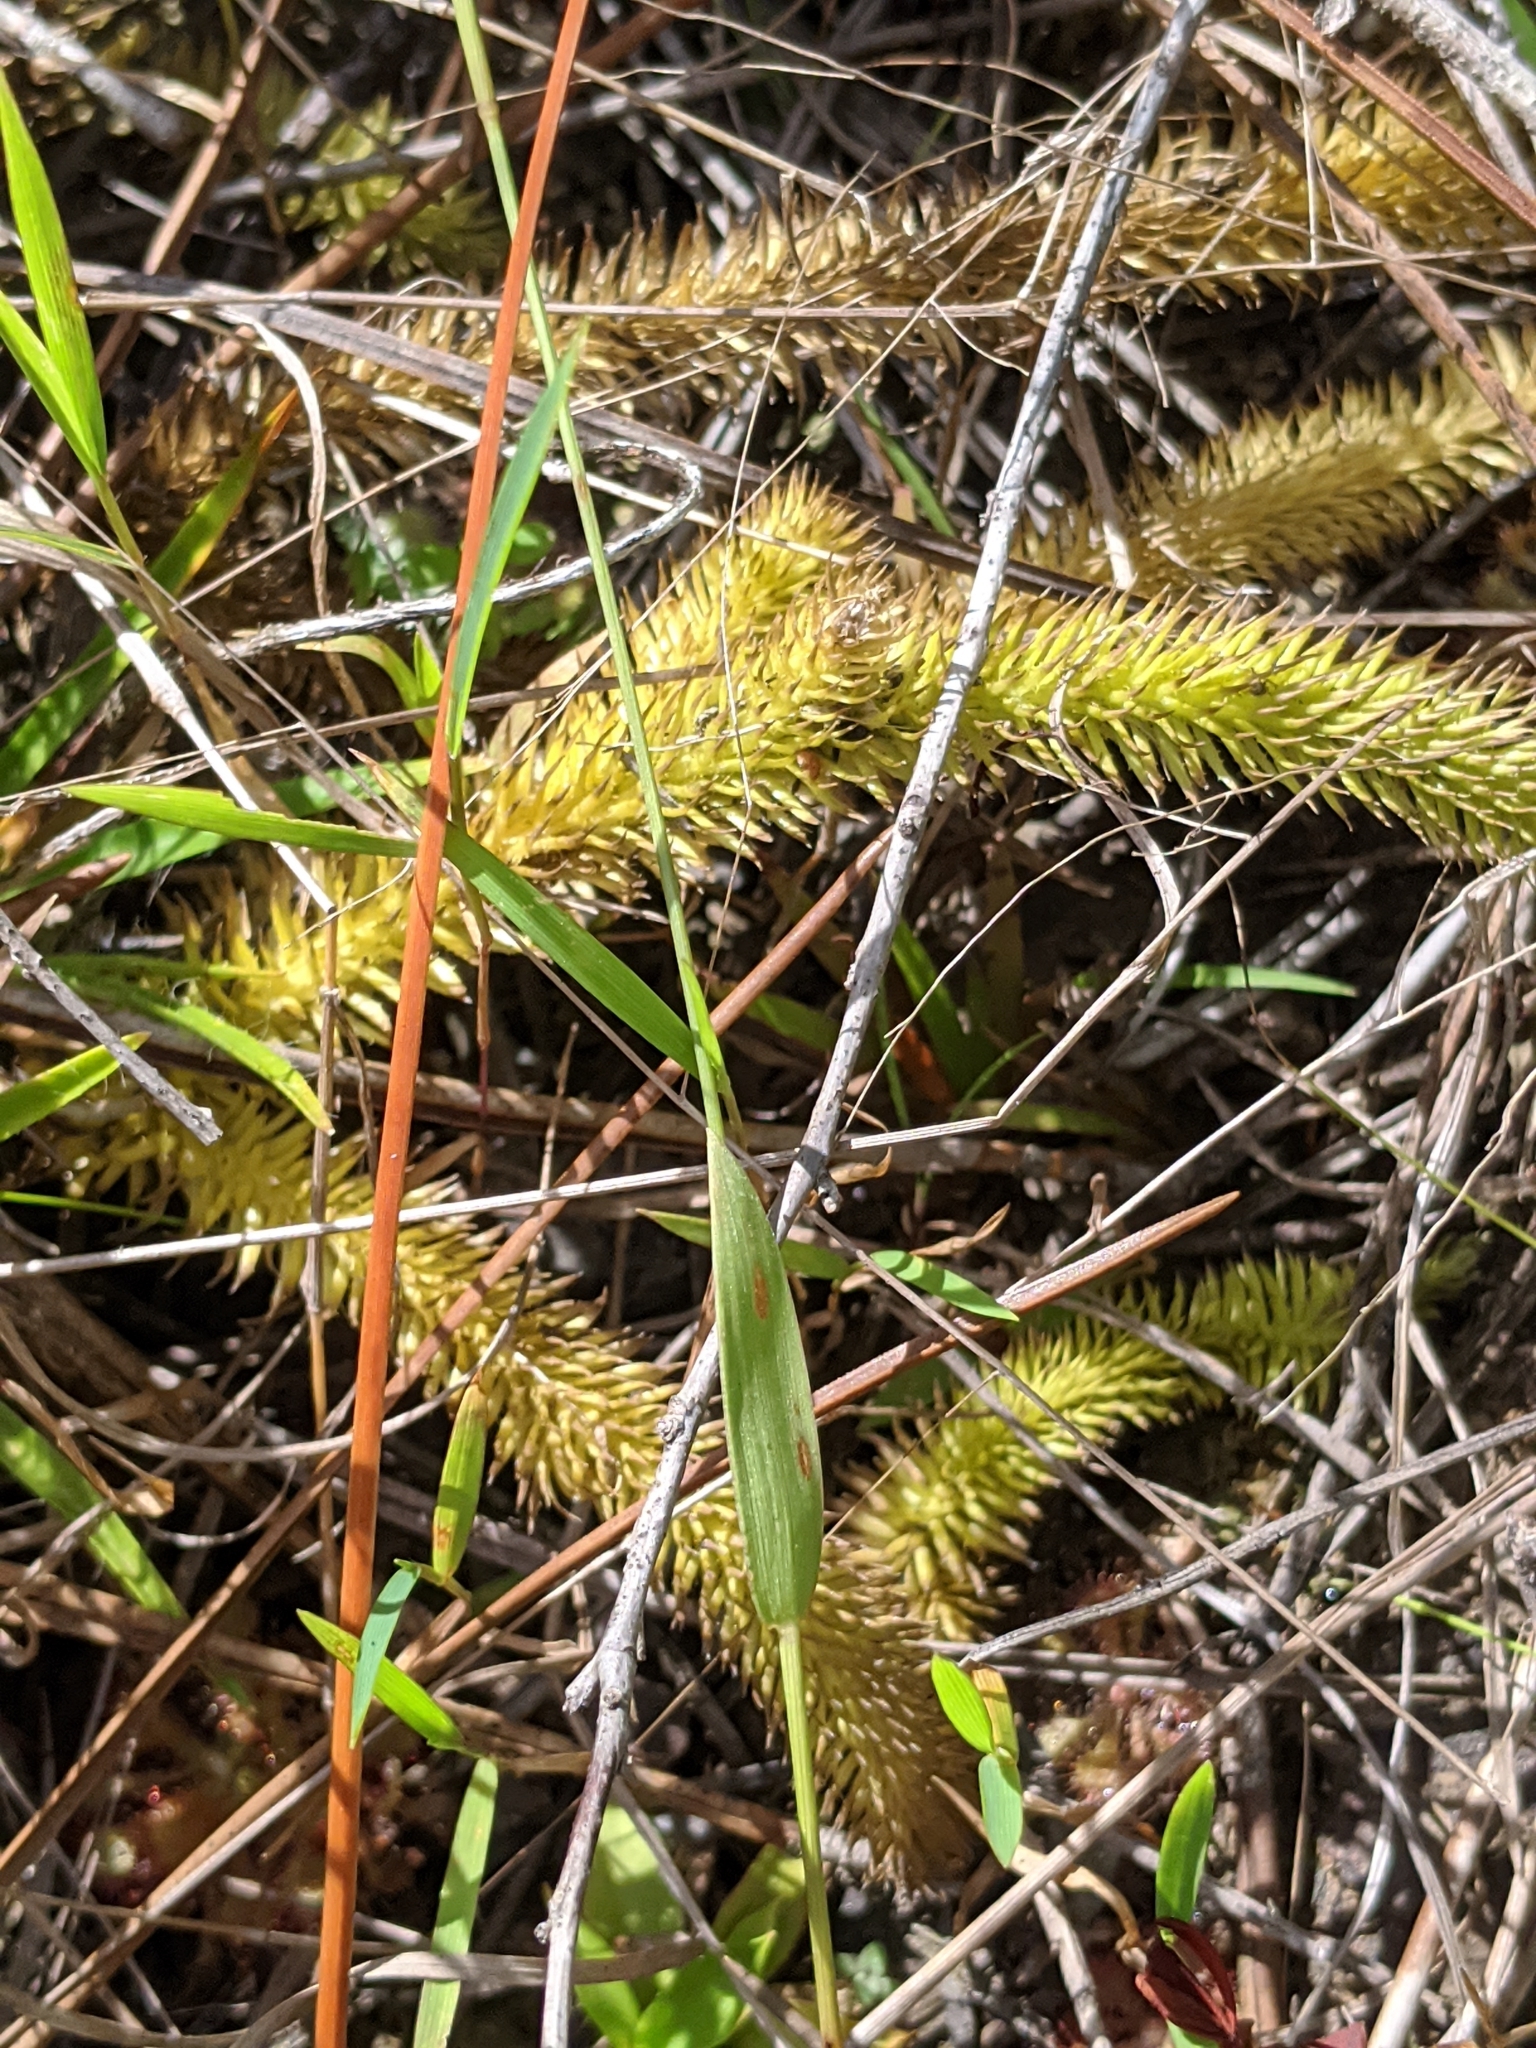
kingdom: Plantae
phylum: Tracheophyta
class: Lycopodiopsida
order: Lycopodiales
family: Lycopodiaceae
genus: Lycopodiella
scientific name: Lycopodiella alopecuroides
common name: Foxtail clubmoss
